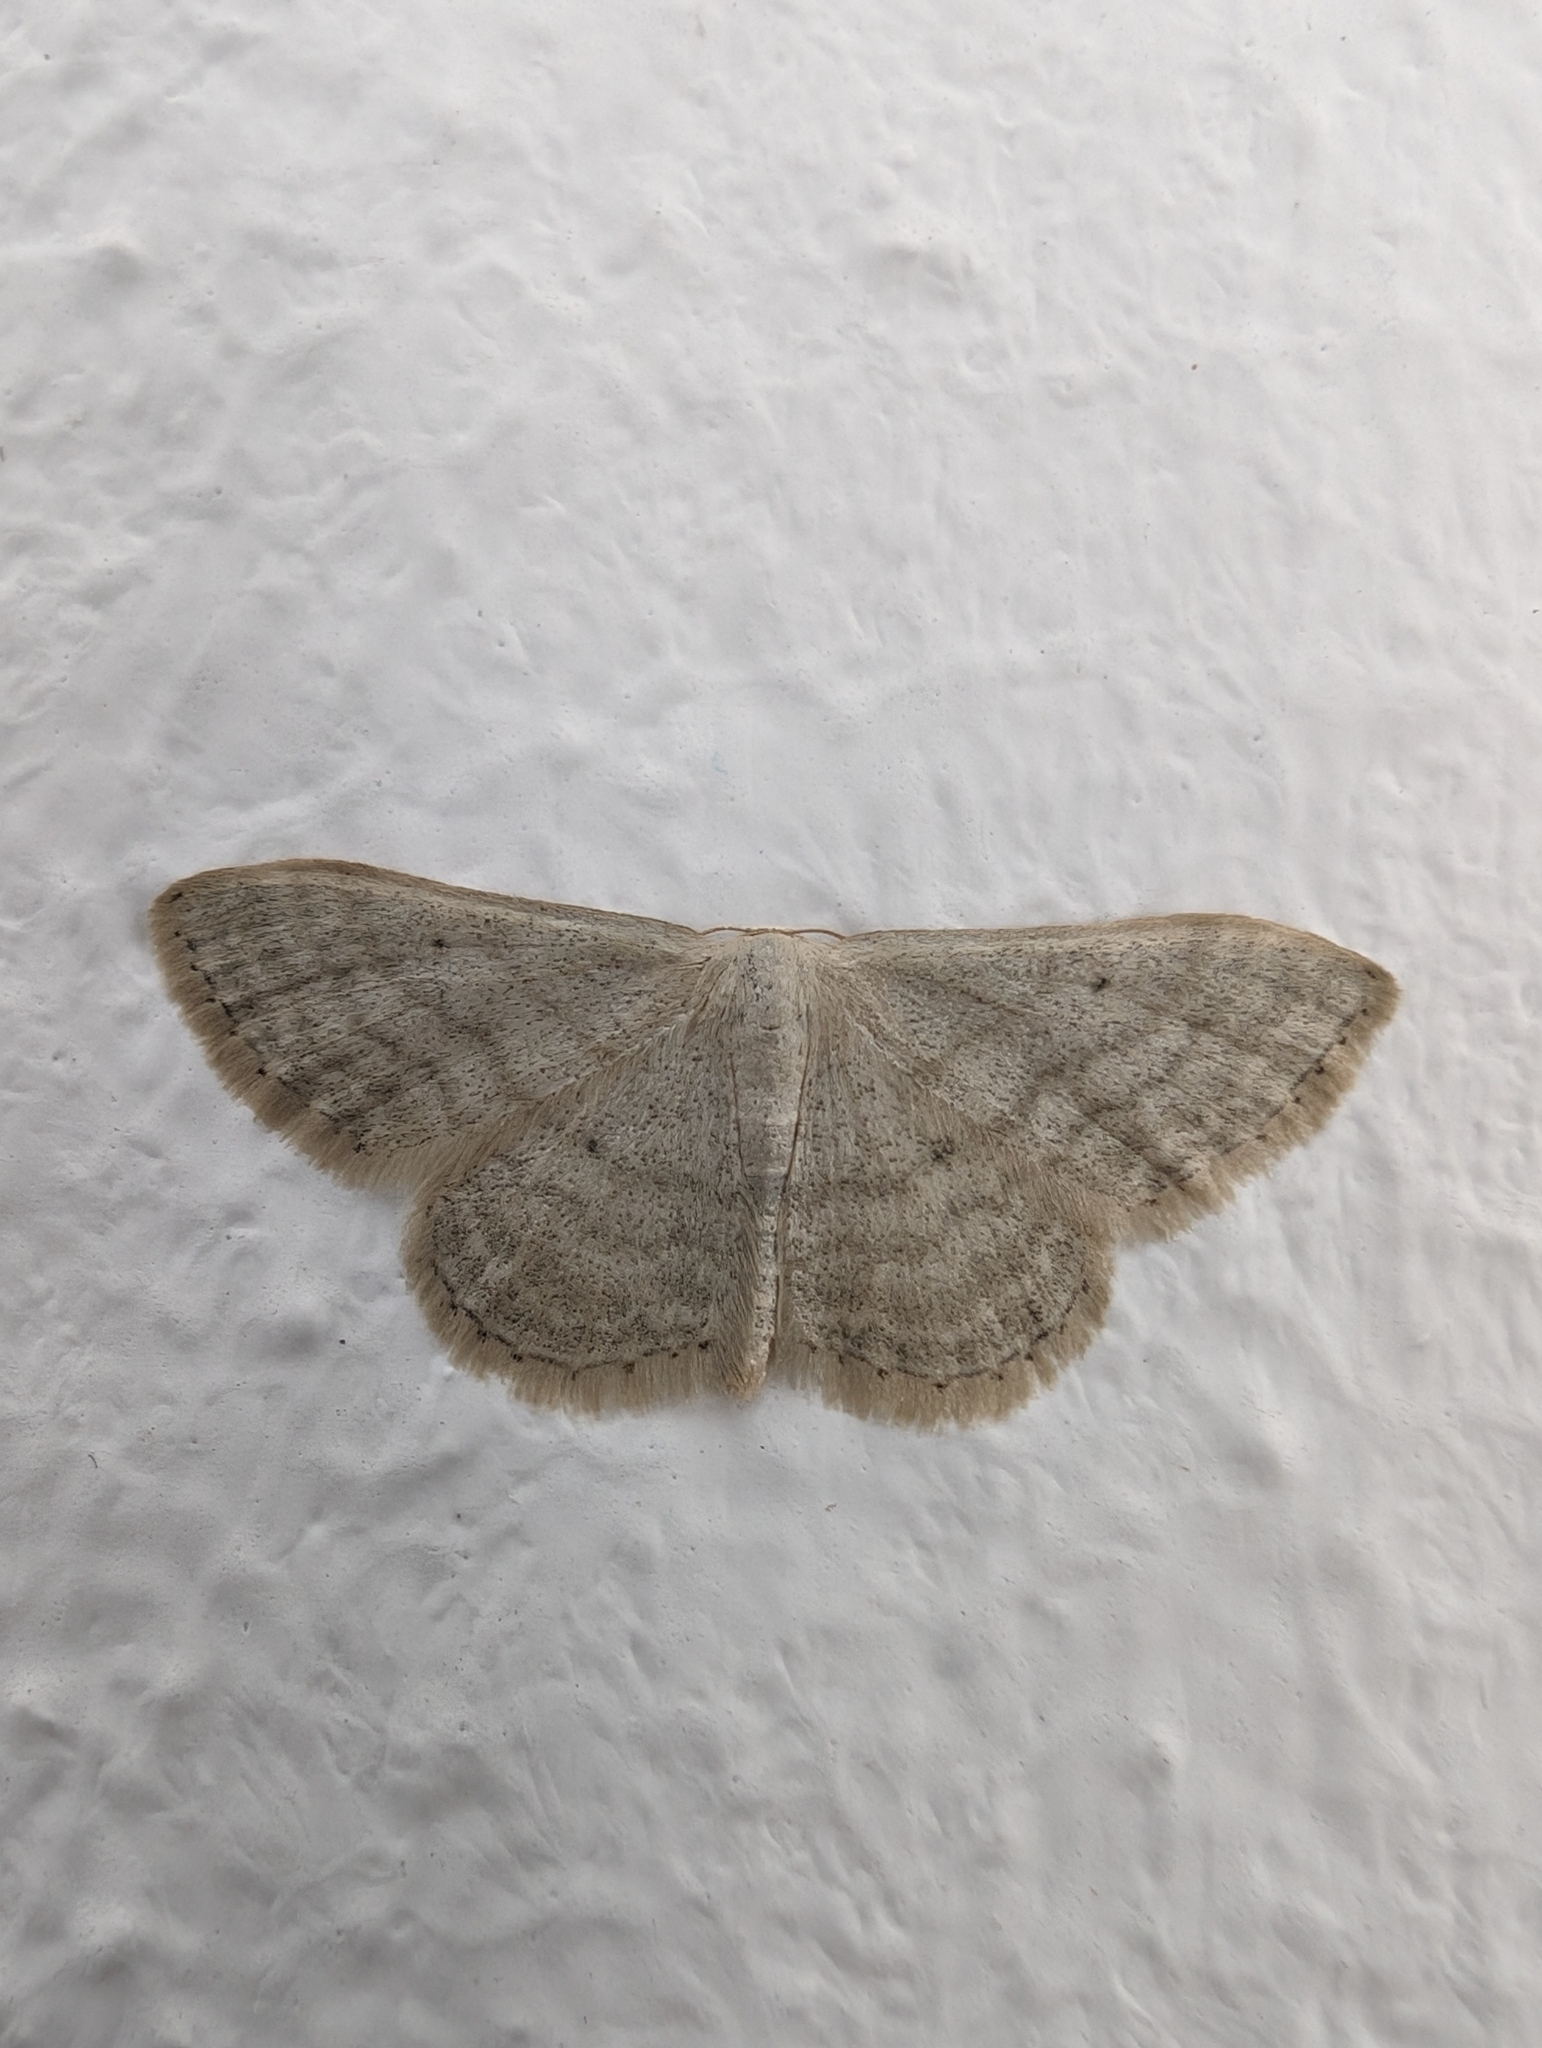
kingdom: Animalia
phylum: Arthropoda
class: Insecta
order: Lepidoptera
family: Geometridae
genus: Idaea
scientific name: Idaea subsericeata
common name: Satin wave
